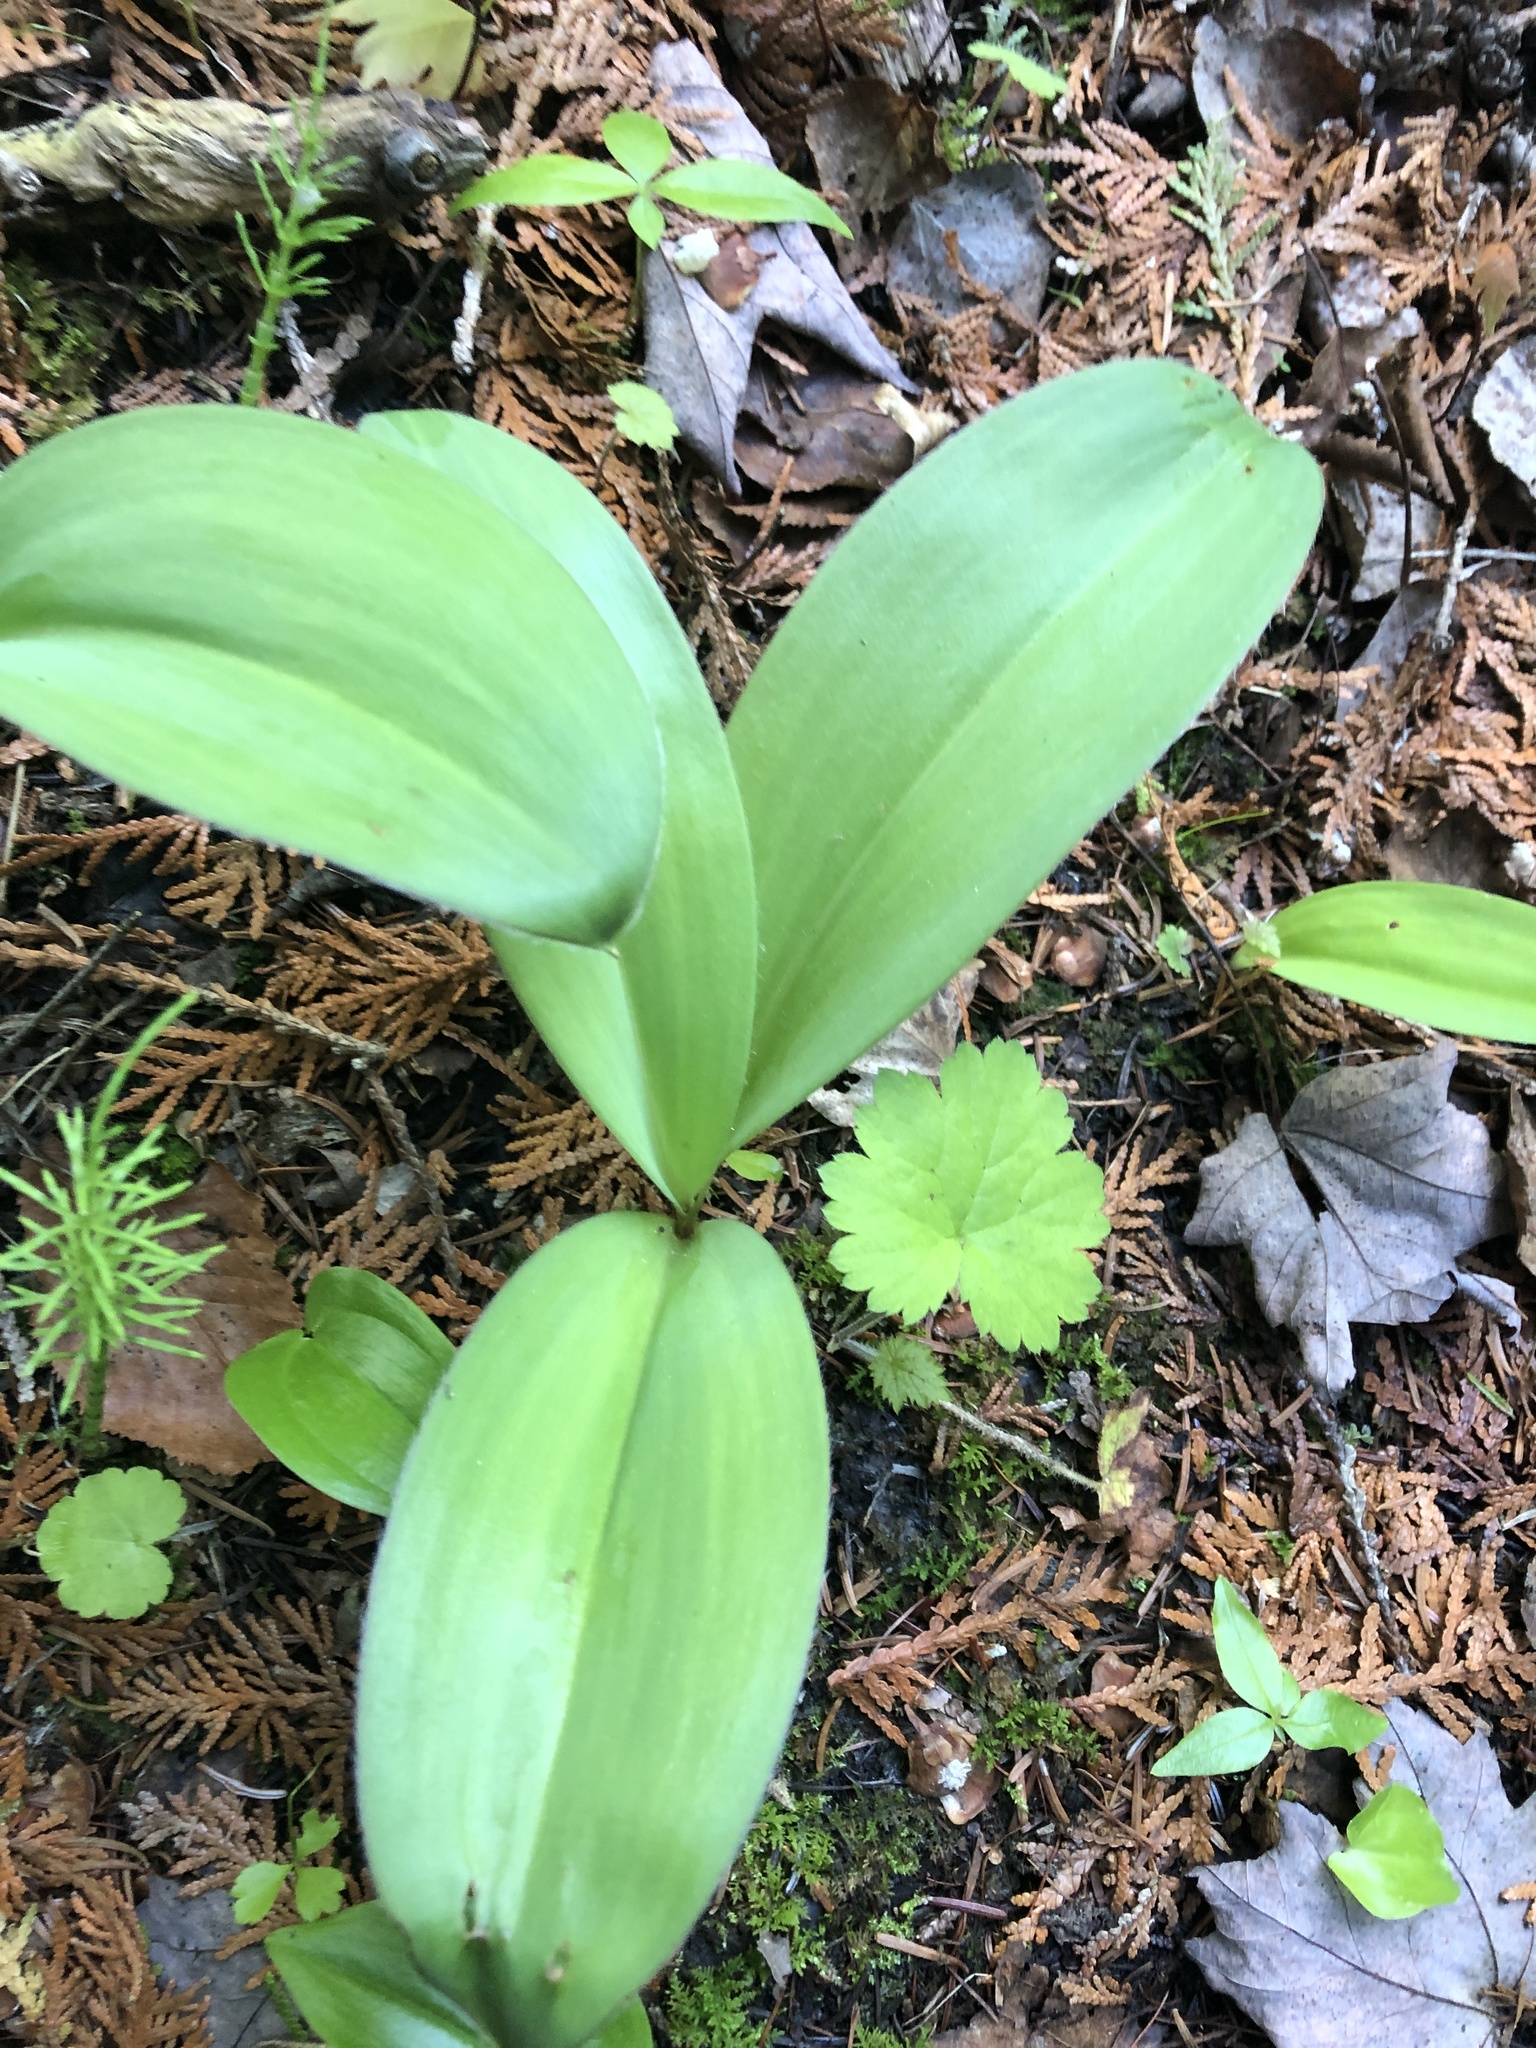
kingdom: Plantae
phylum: Tracheophyta
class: Liliopsida
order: Liliales
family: Liliaceae
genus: Clintonia
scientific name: Clintonia borealis
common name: Yellow clintonia
